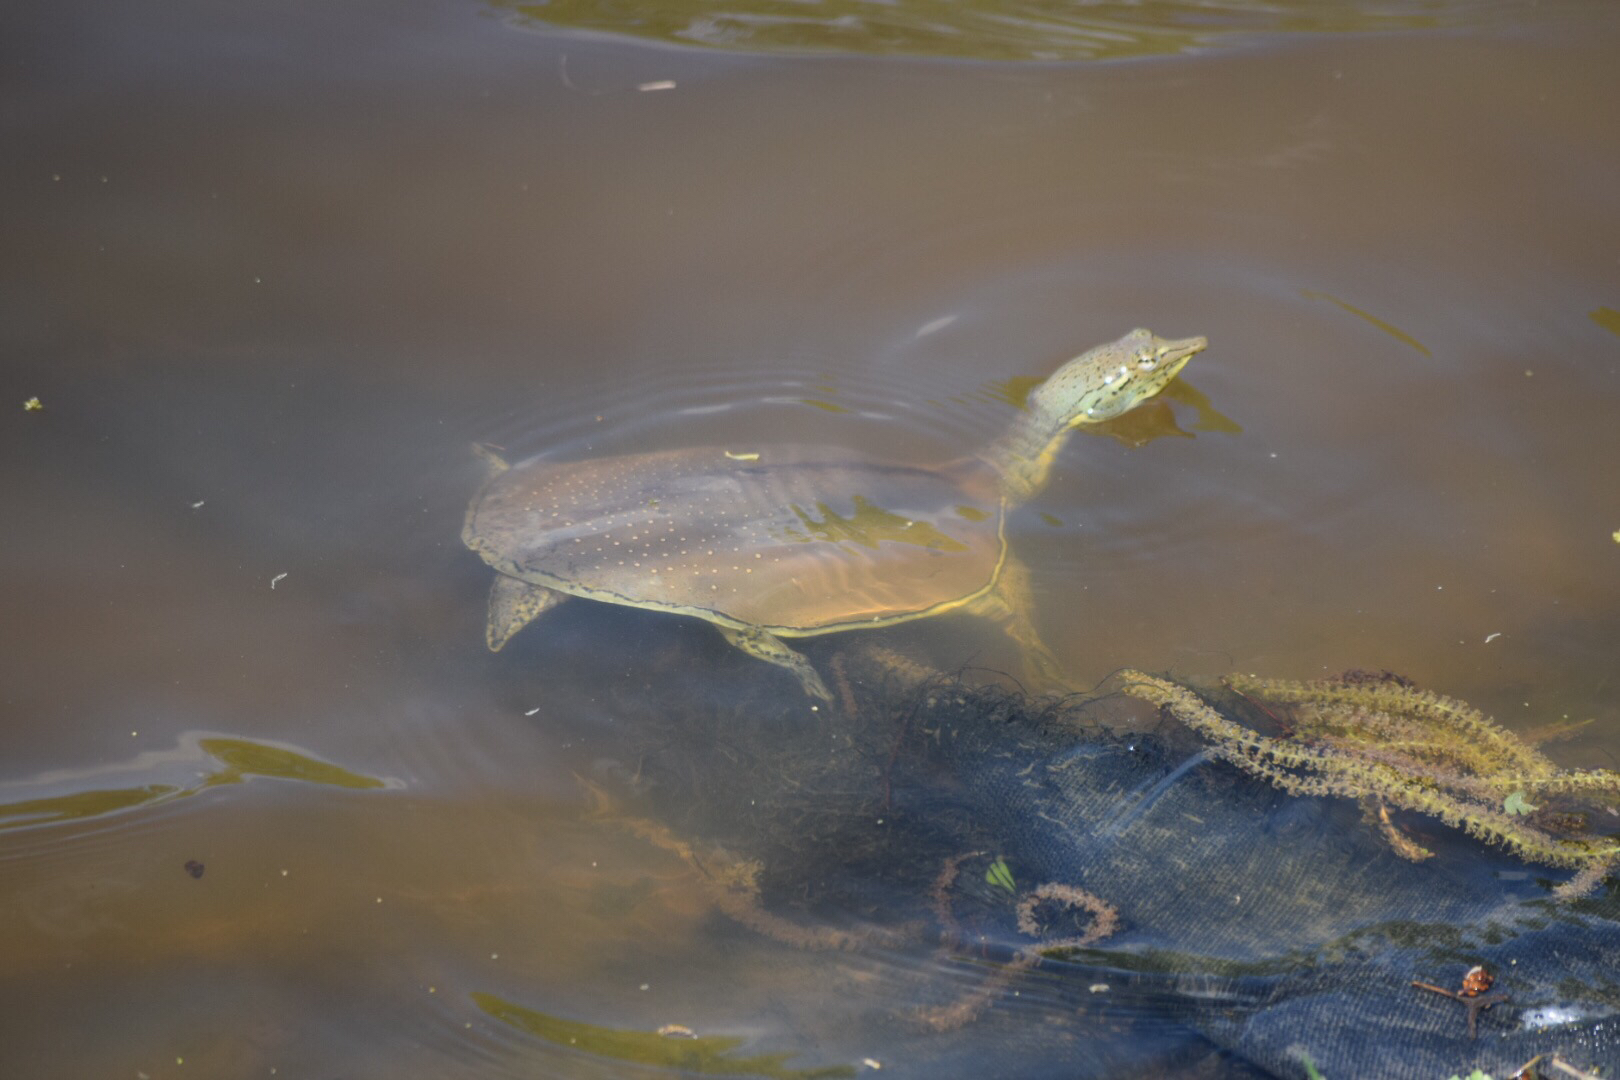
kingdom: Animalia
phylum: Chordata
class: Testudines
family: Trionychidae
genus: Apalone
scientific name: Apalone spinifera
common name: Spiny softshell turtle
